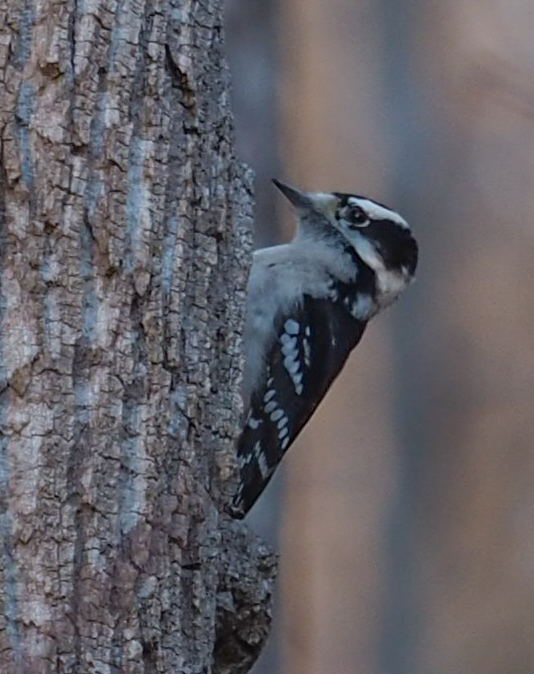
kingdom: Animalia
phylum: Chordata
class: Aves
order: Piciformes
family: Picidae
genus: Dryobates
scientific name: Dryobates pubescens
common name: Downy woodpecker
